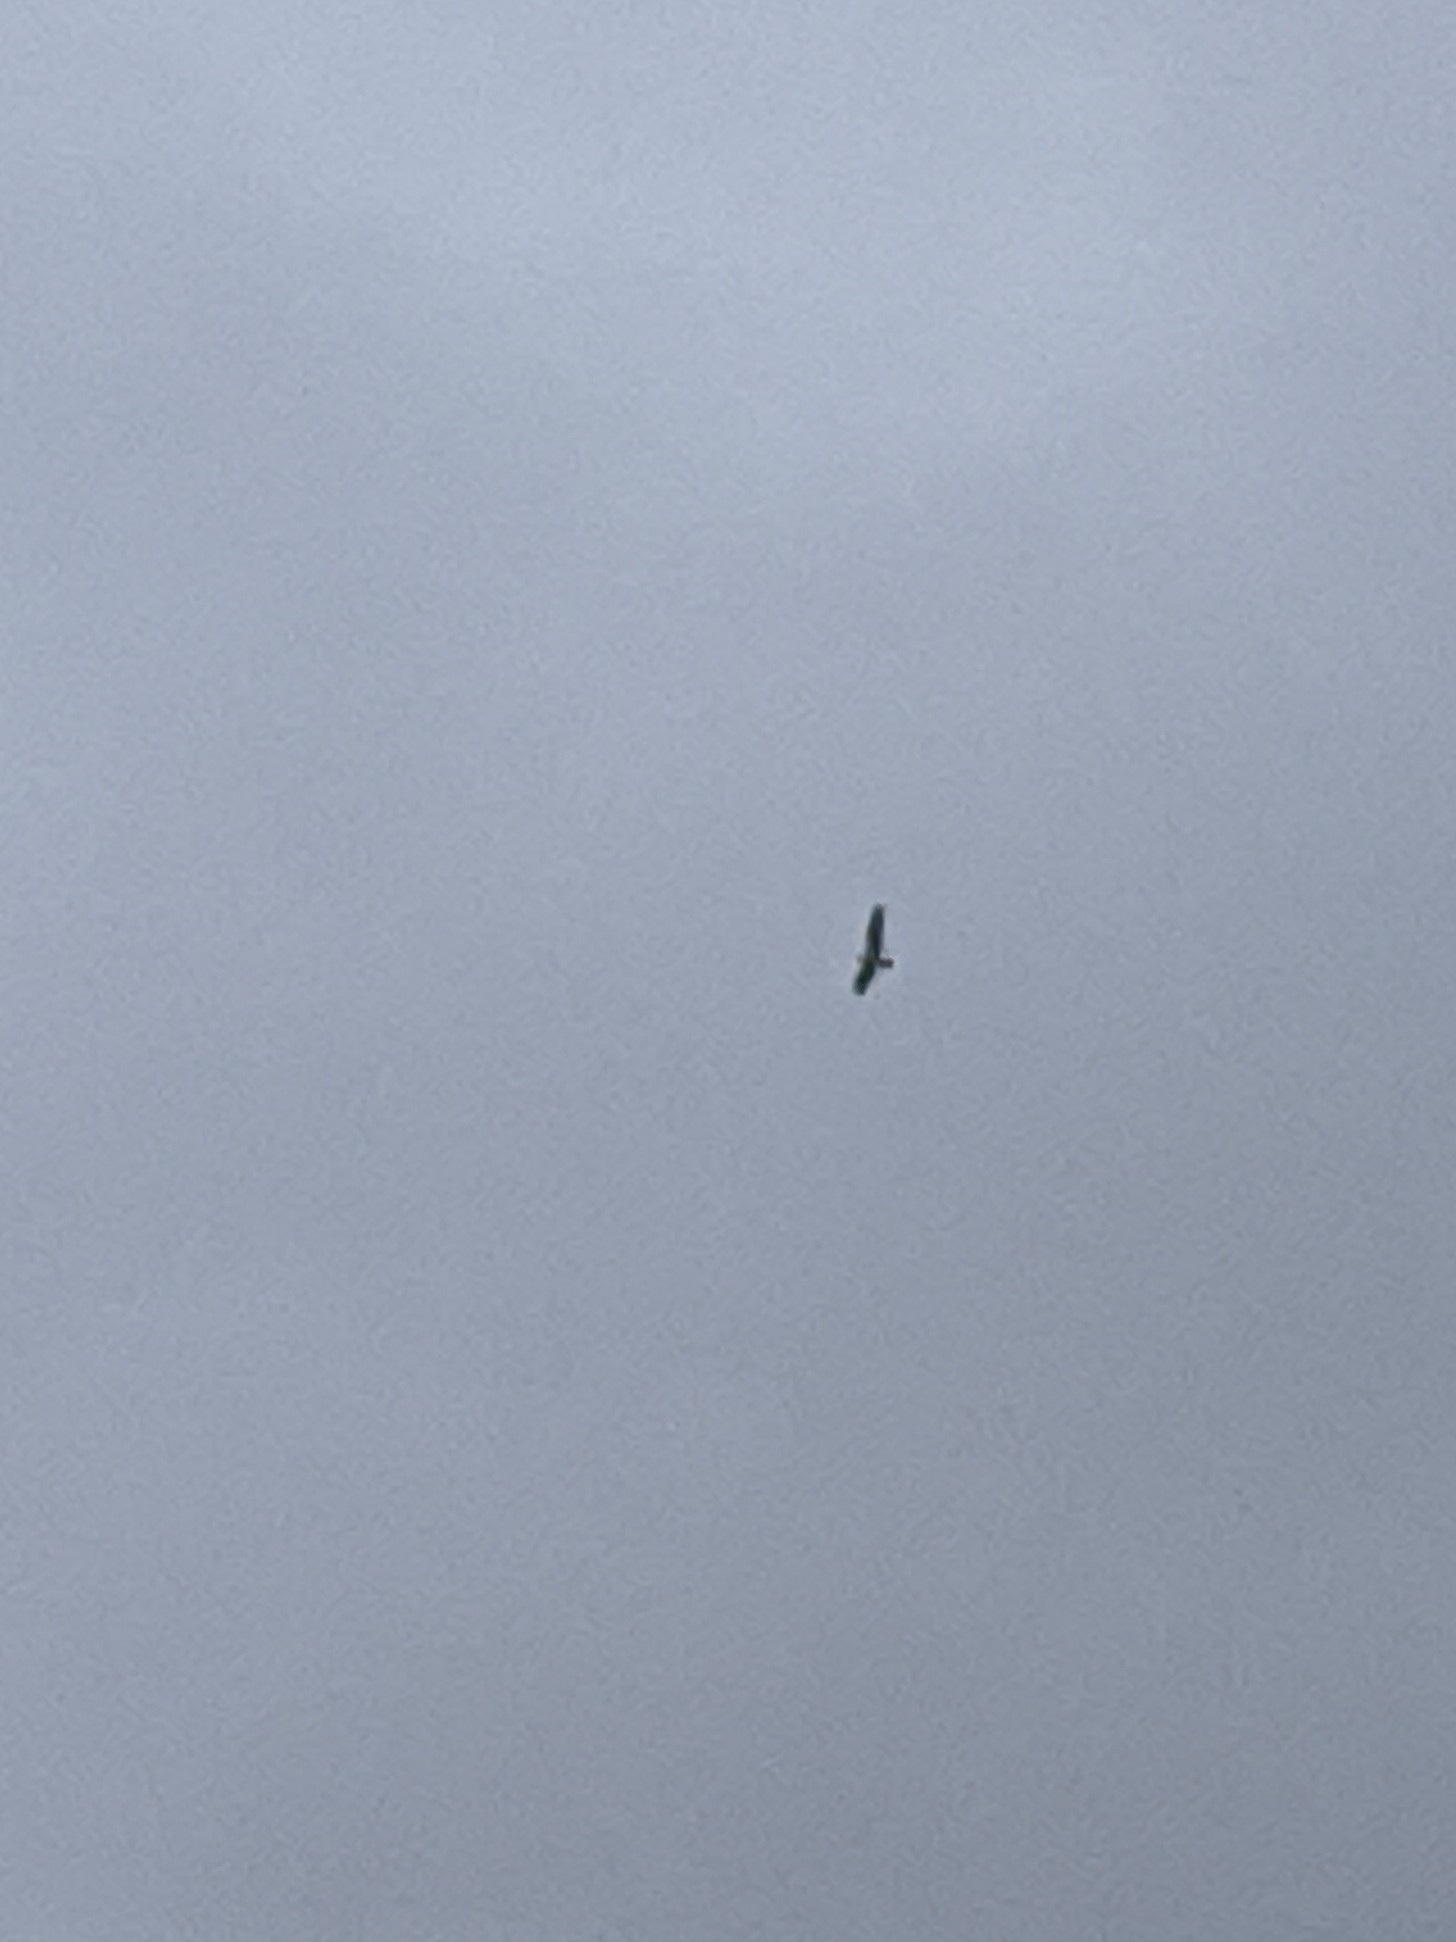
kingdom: Animalia
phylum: Chordata
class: Aves
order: Accipitriformes
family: Pandionidae
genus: Pandion
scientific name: Pandion haliaetus
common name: Osprey
